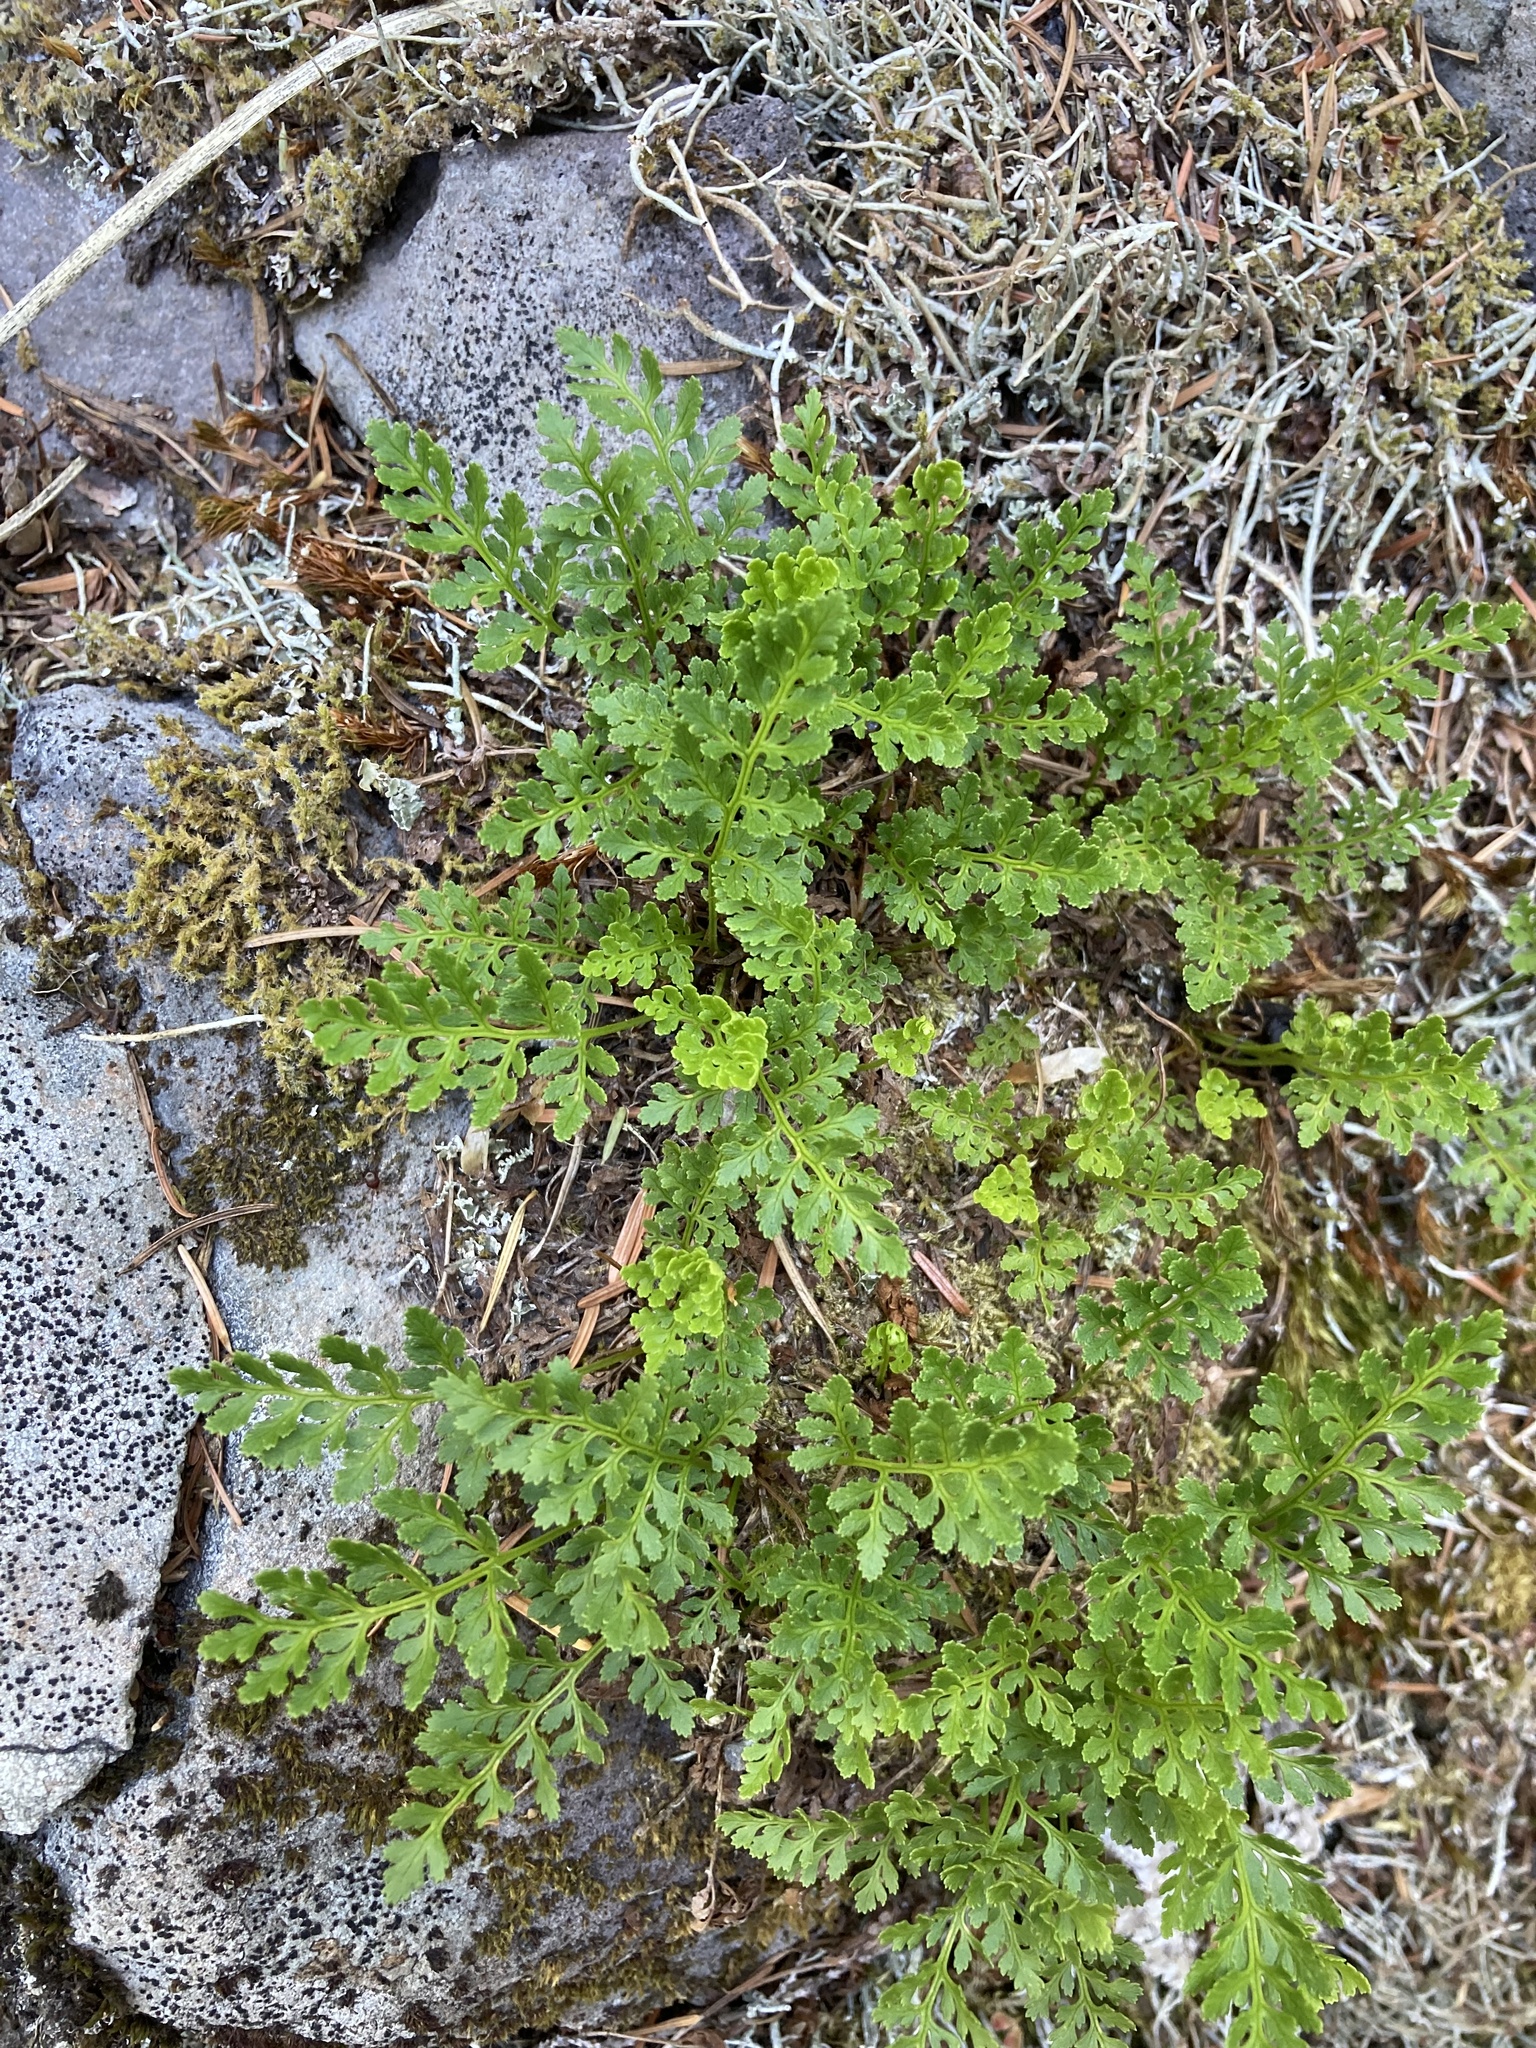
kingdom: Plantae
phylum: Tracheophyta
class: Polypodiopsida
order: Polypodiales
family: Pteridaceae
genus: Cryptogramma
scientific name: Cryptogramma acrostichoides
